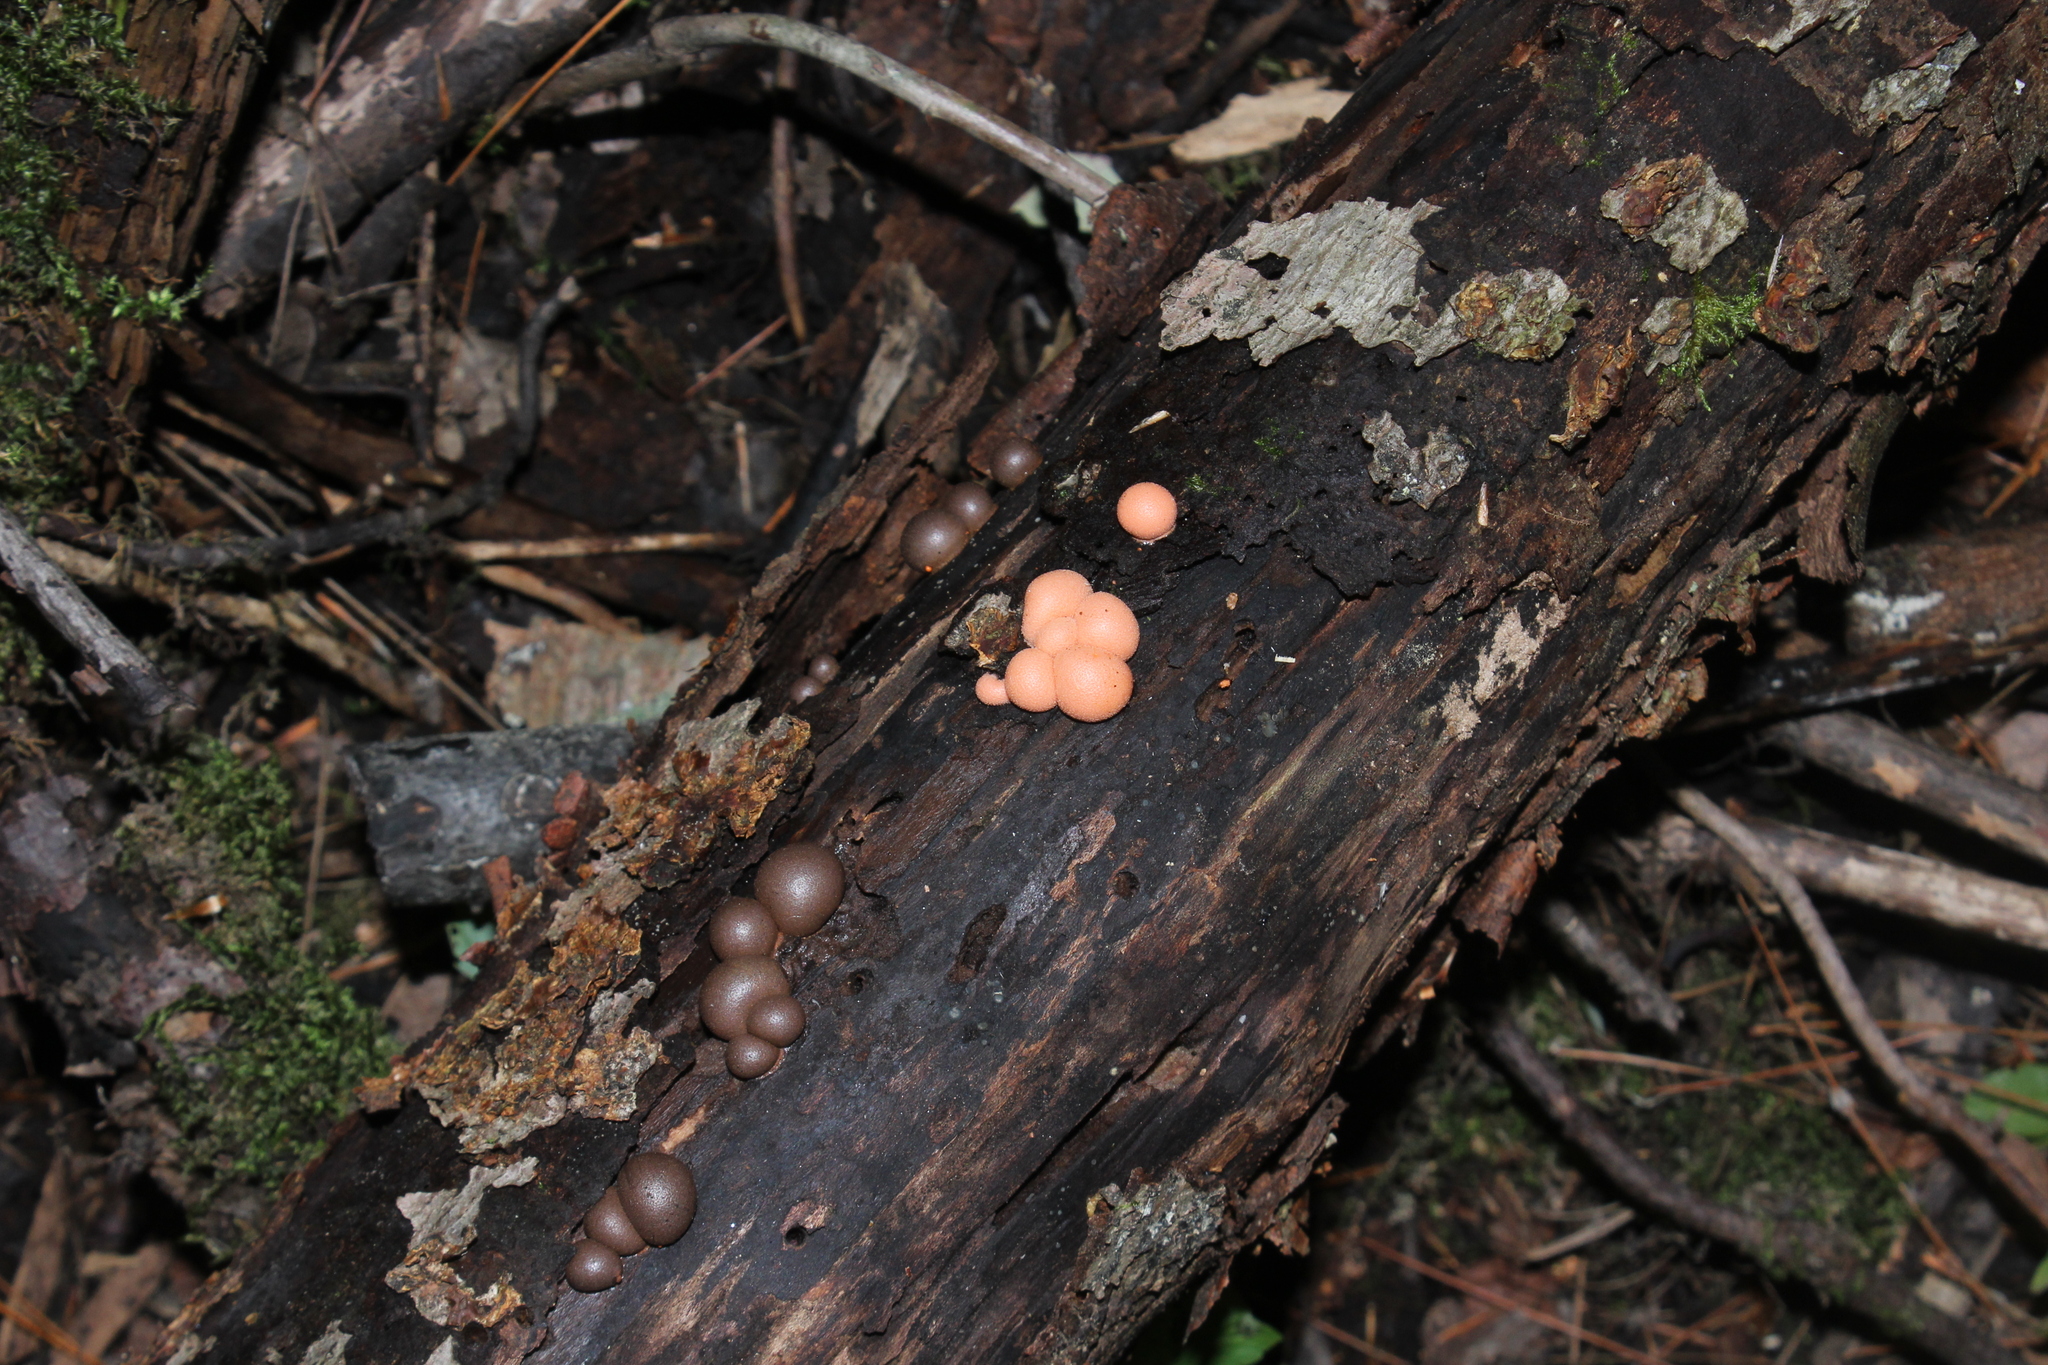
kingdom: Protozoa
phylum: Mycetozoa
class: Myxomycetes
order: Cribrariales
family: Tubiferaceae
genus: Lycogala
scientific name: Lycogala
